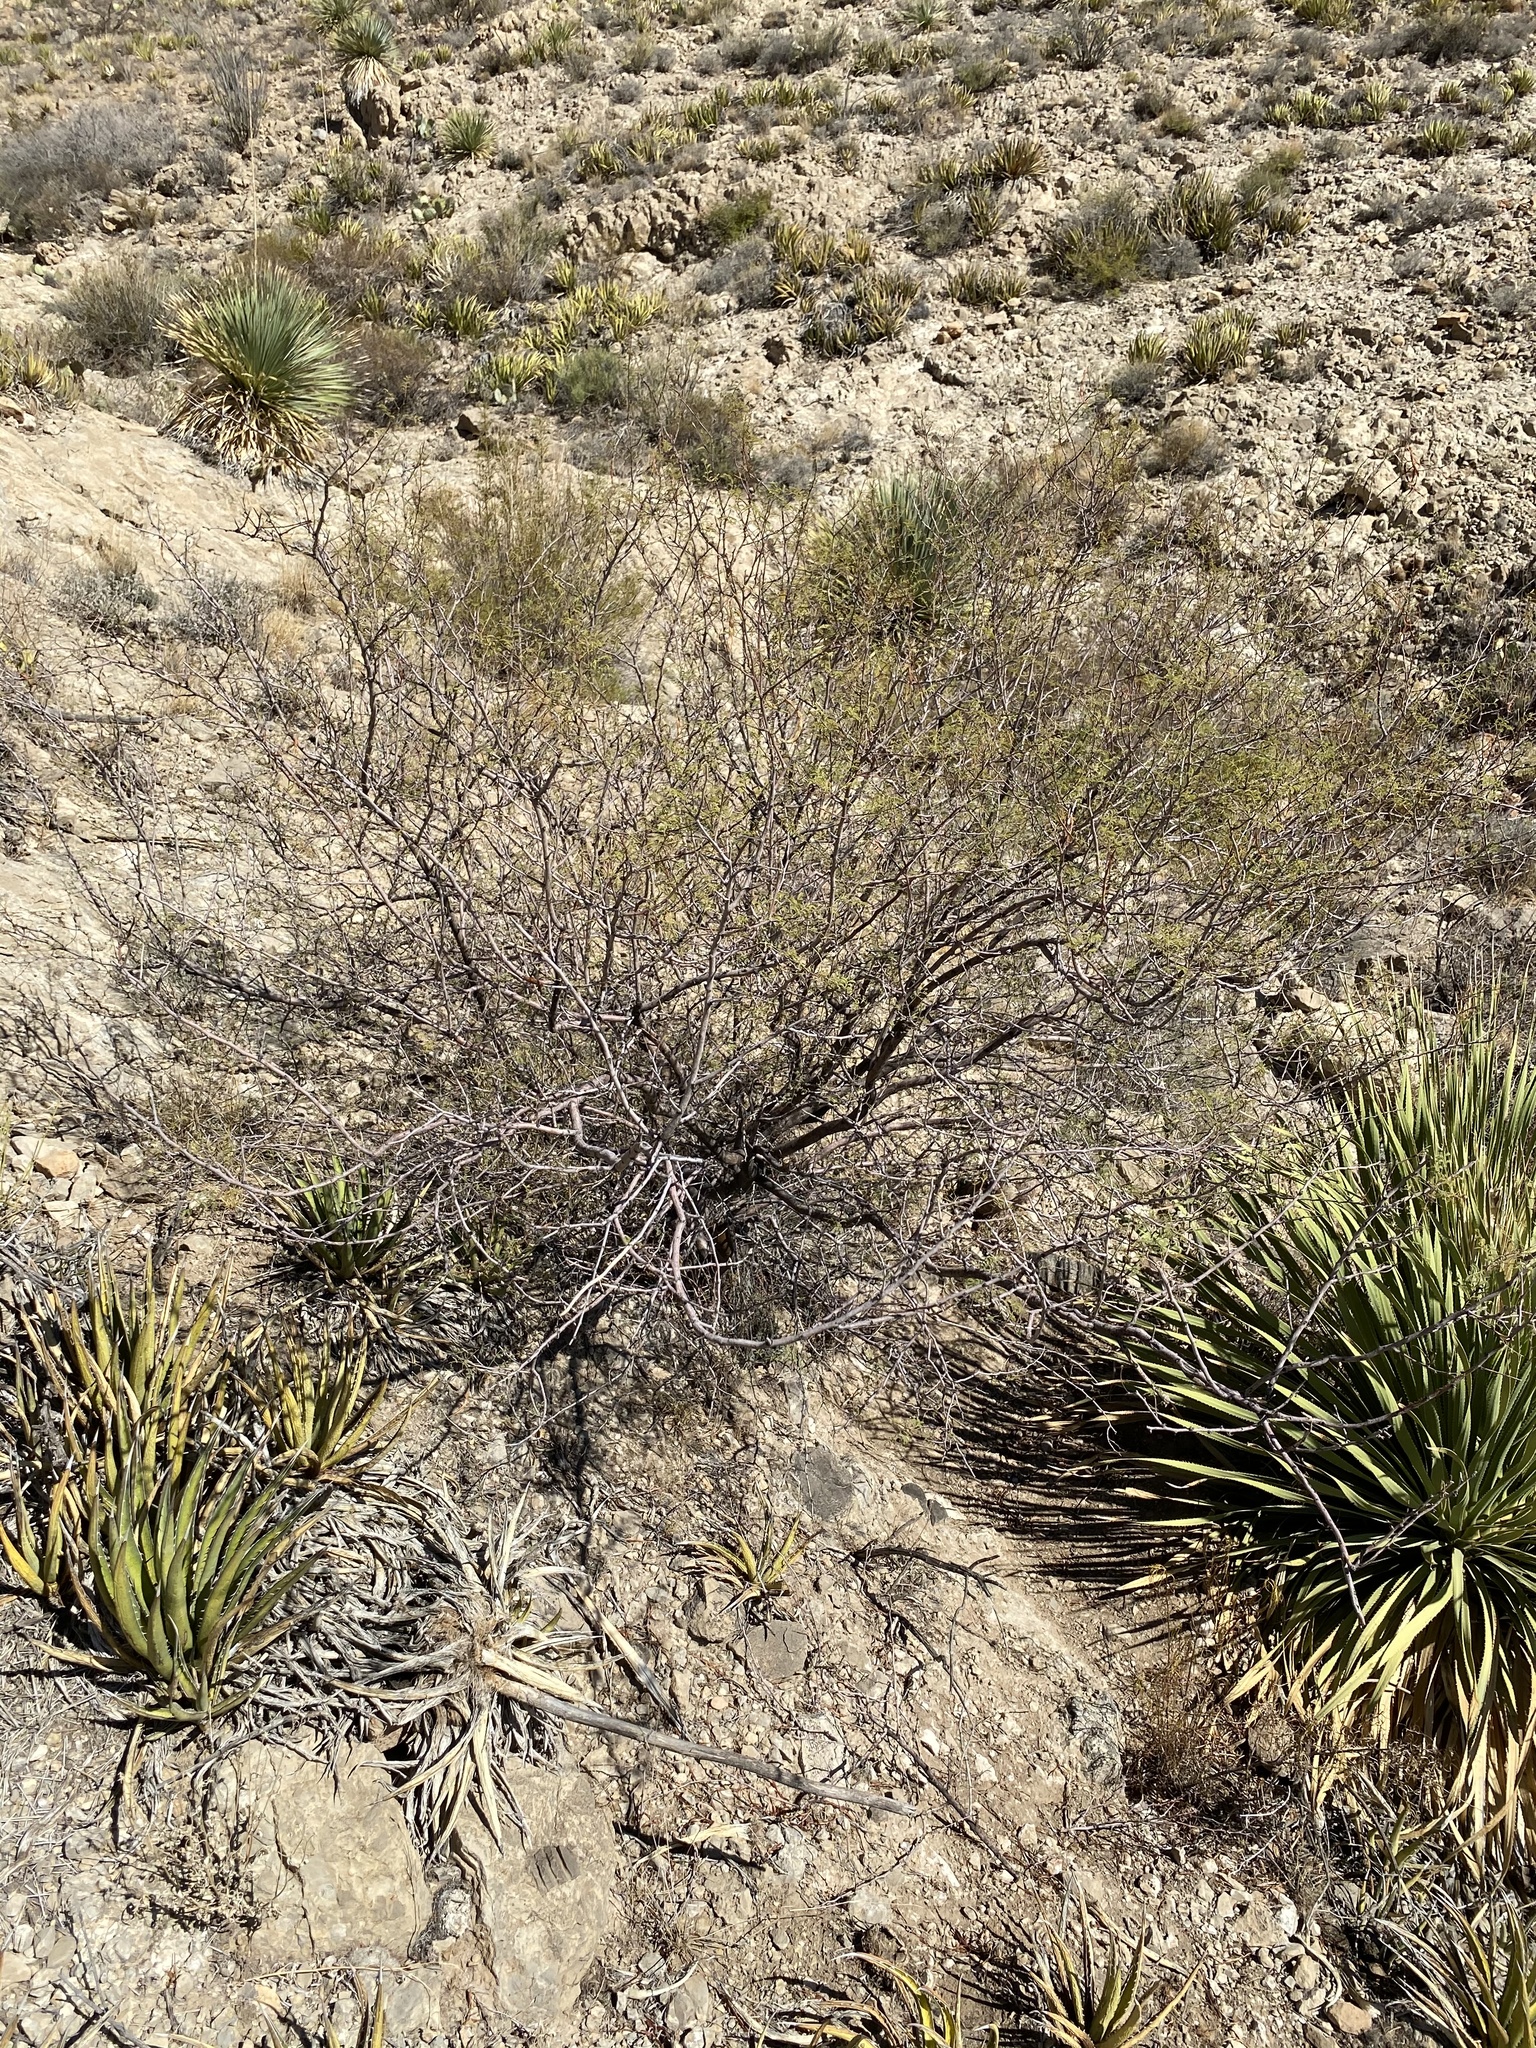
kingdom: Plantae
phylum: Tracheophyta
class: Magnoliopsida
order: Fabales
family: Fabaceae
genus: Vachellia
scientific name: Vachellia constricta
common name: Mescat acacia
